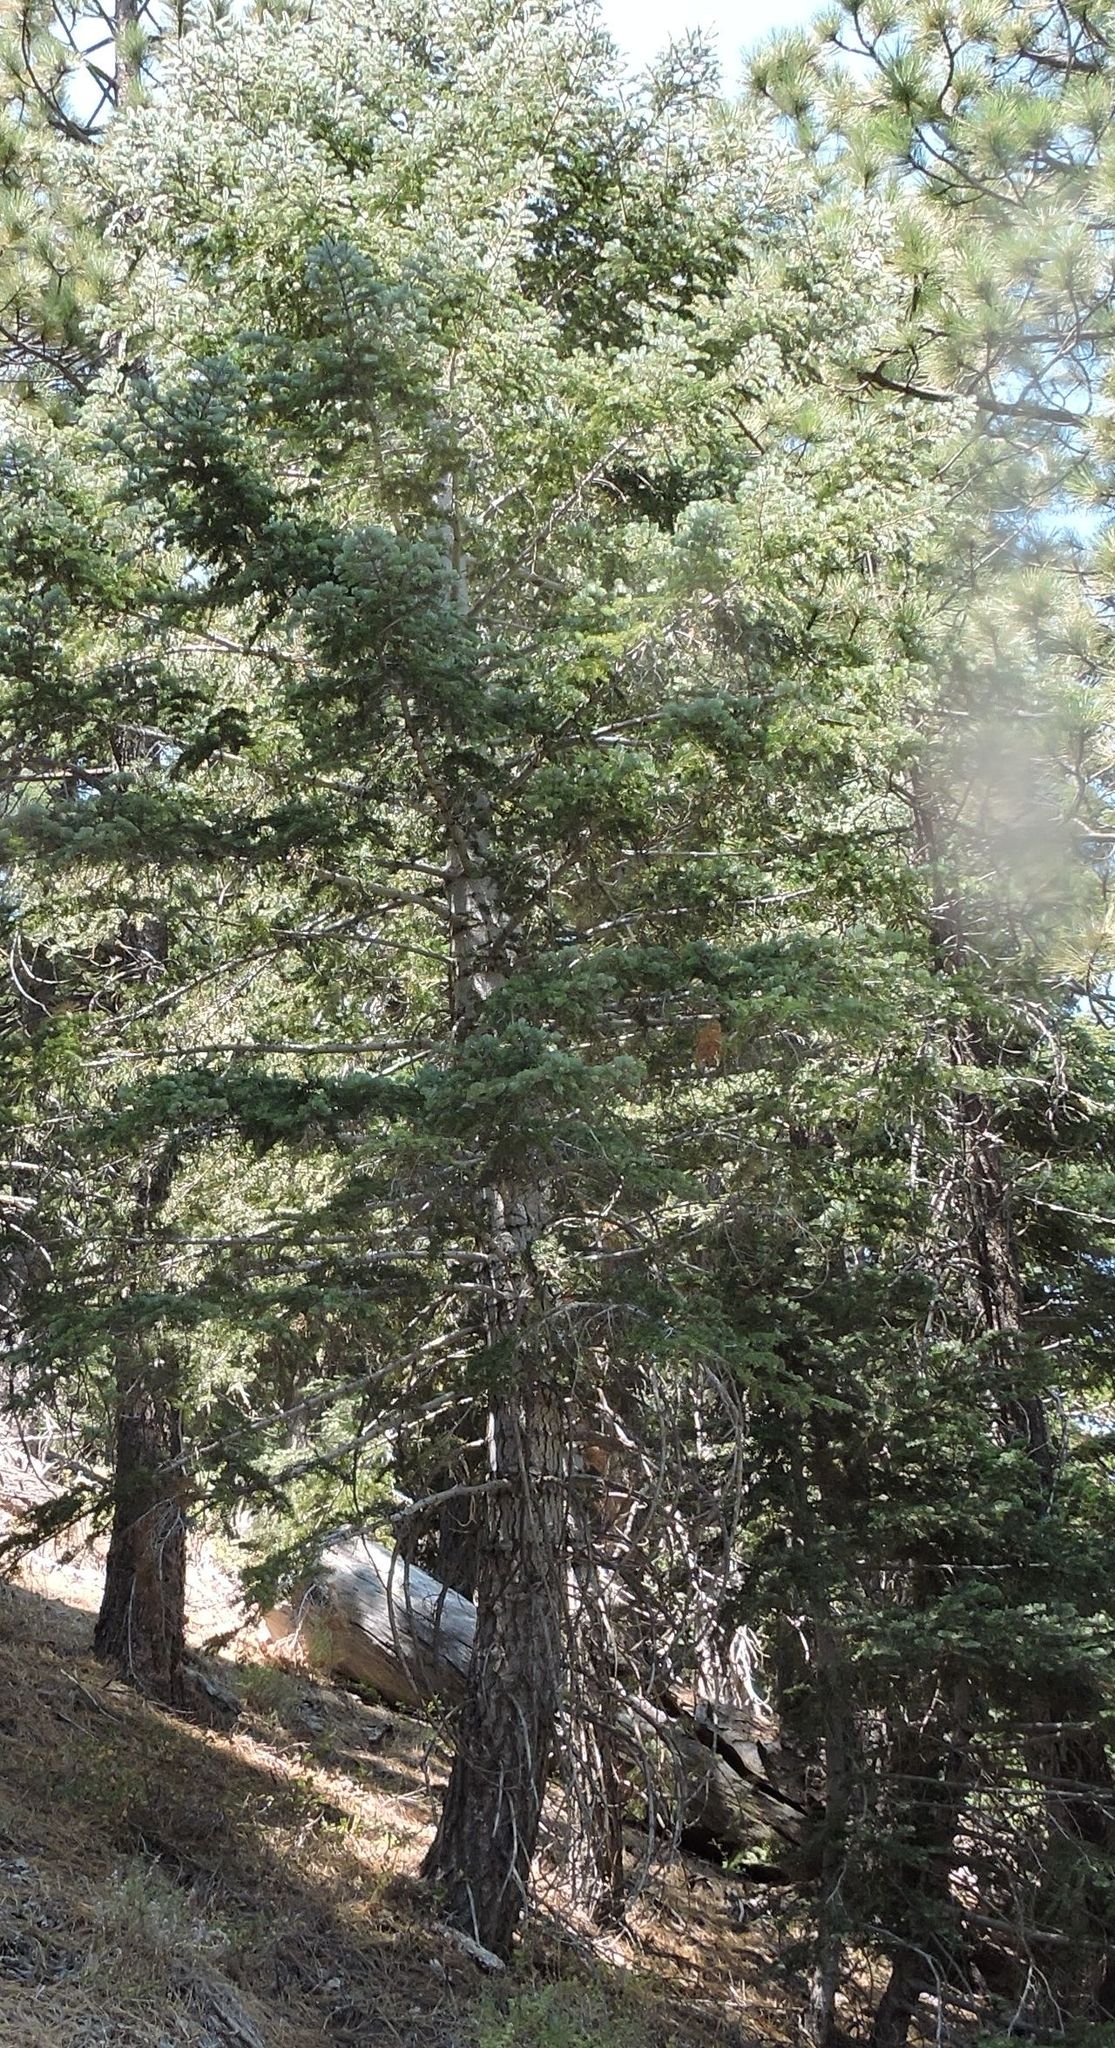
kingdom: Plantae
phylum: Tracheophyta
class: Pinopsida
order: Pinales
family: Pinaceae
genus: Abies
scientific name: Abies concolor
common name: Colorado fir
